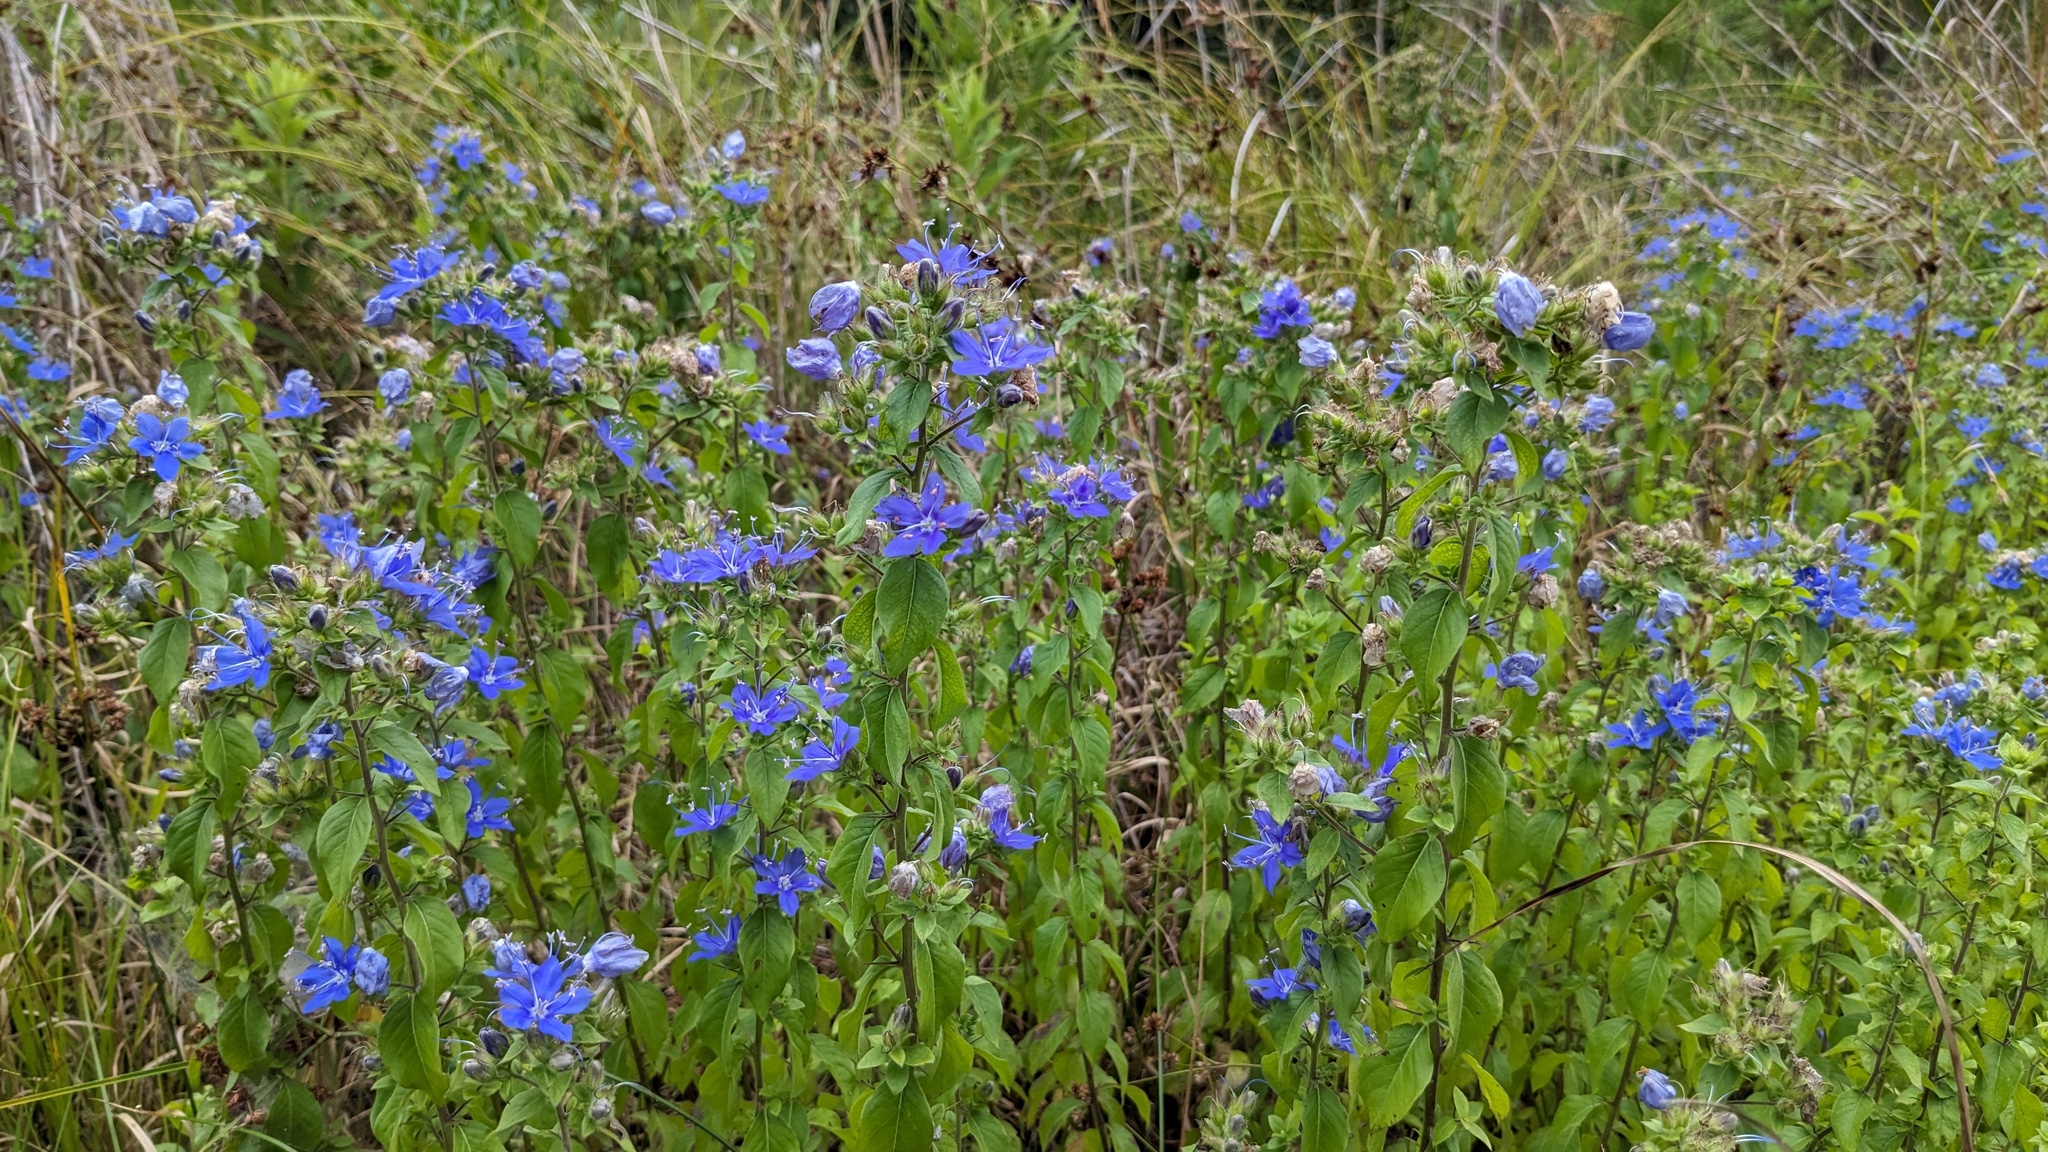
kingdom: Plantae
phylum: Tracheophyta
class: Magnoliopsida
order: Solanales
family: Hydroleaceae
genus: Hydrolea
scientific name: Hydrolea ovata
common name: Ovate false fiddleleaf
